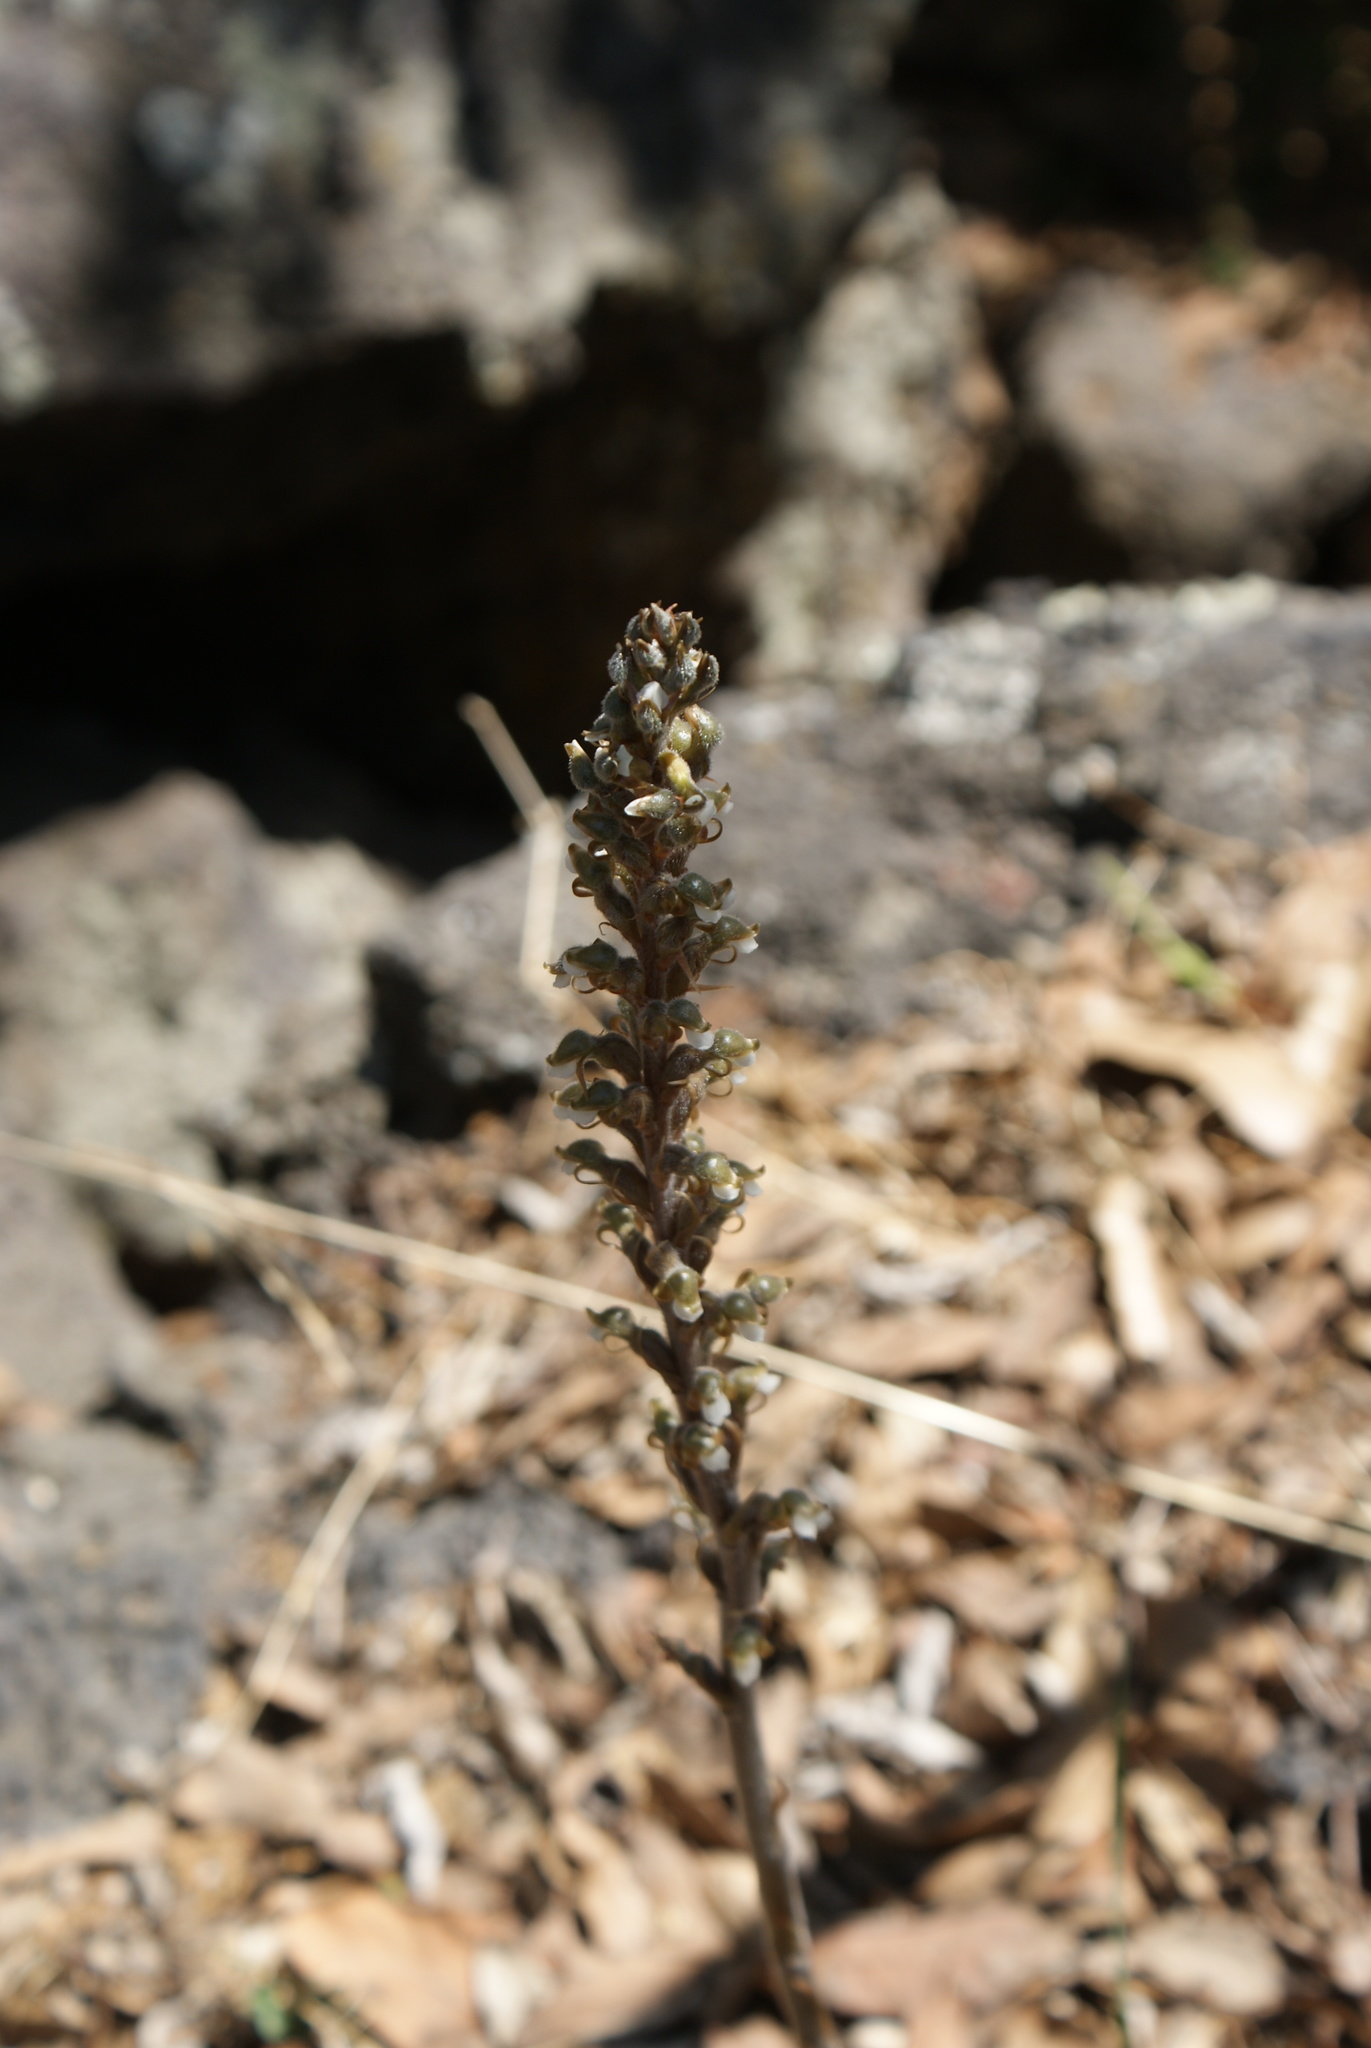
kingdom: Plantae
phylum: Tracheophyta
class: Liliopsida
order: Asparagales
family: Orchidaceae
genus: Sarcoglottis
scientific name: Sarcoglottis schaffneri
